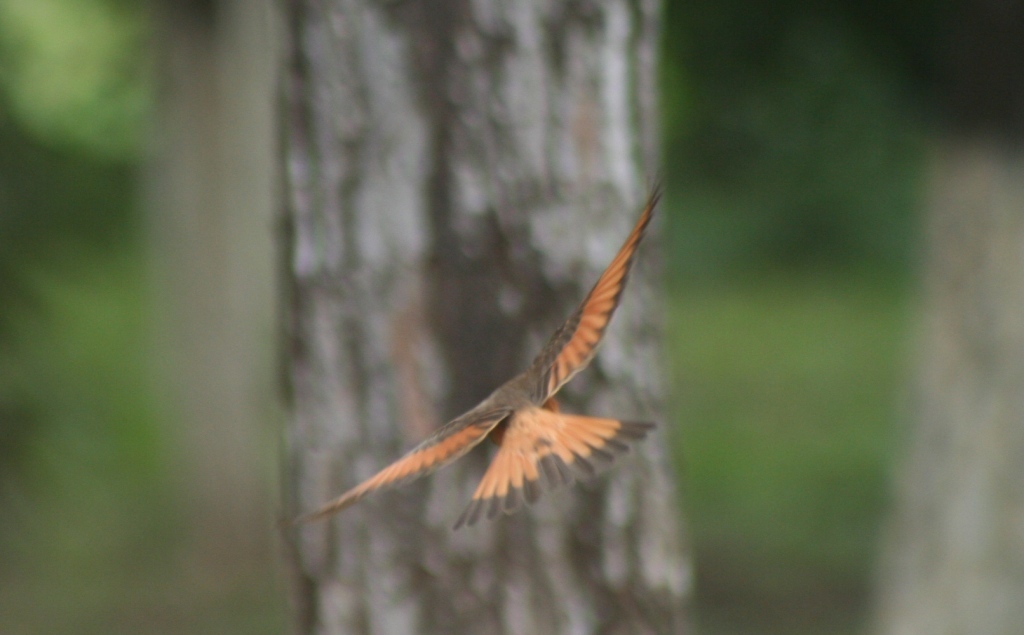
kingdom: Animalia
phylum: Chordata
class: Aves
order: Passeriformes
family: Tyrannidae
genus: Hirundinea
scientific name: Hirundinea ferruginea
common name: Cliff flycatcher
